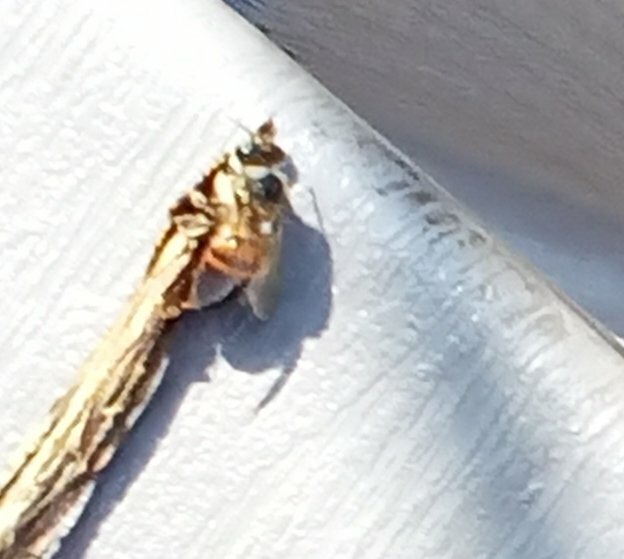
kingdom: Animalia
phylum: Arthropoda
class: Insecta
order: Hymenoptera
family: Apidae
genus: Apis
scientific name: Apis mellifera
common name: Honey bee
